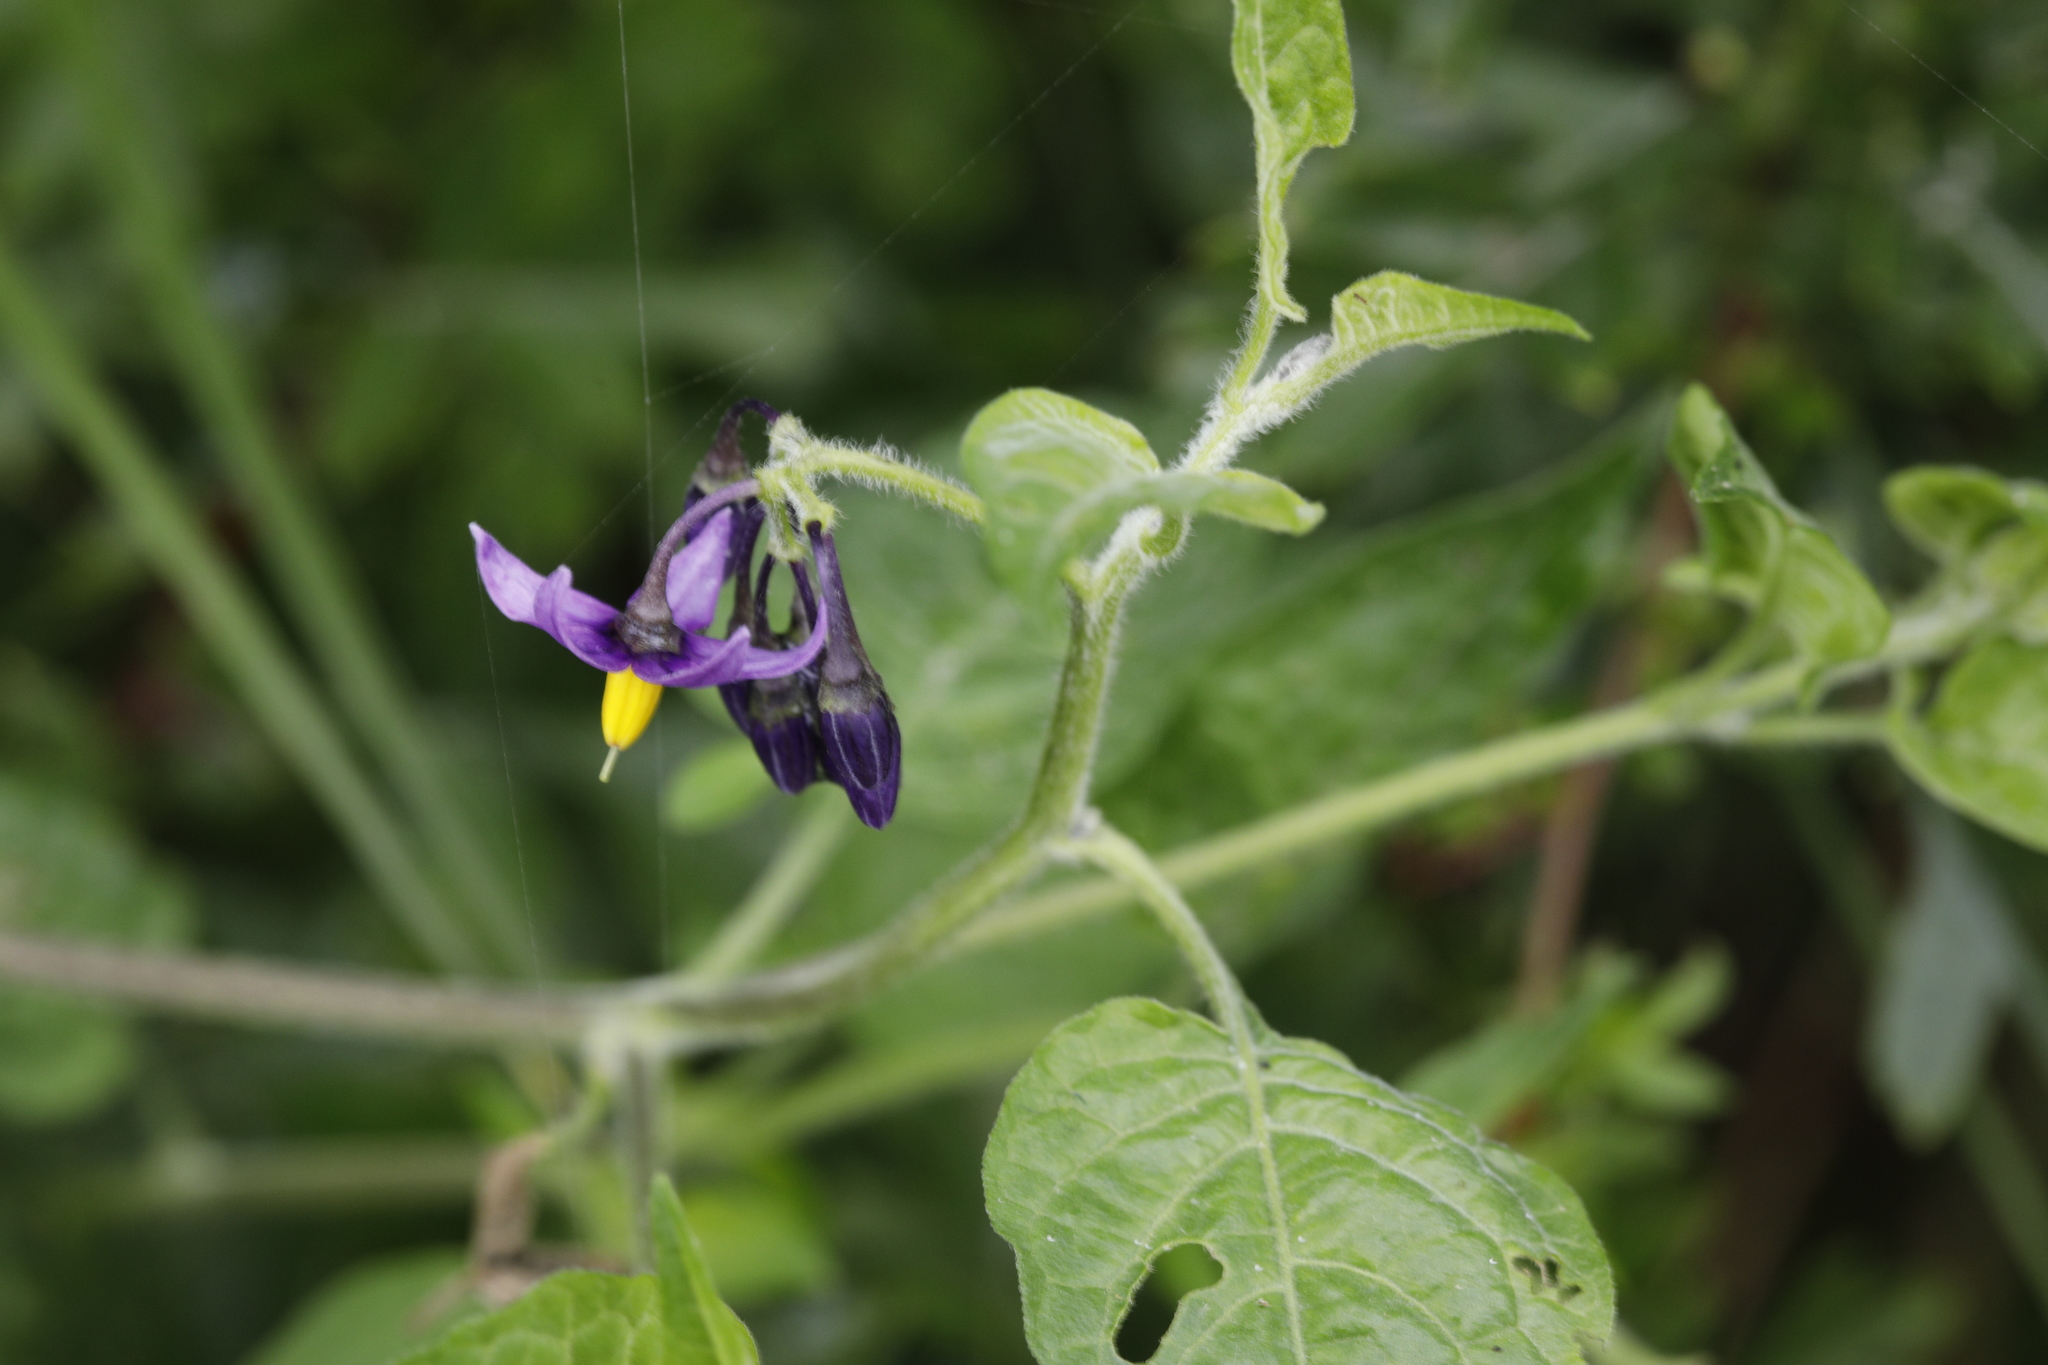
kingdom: Plantae
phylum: Tracheophyta
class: Magnoliopsida
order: Solanales
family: Solanaceae
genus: Solanum
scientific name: Solanum dulcamara
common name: Climbing nightshade
